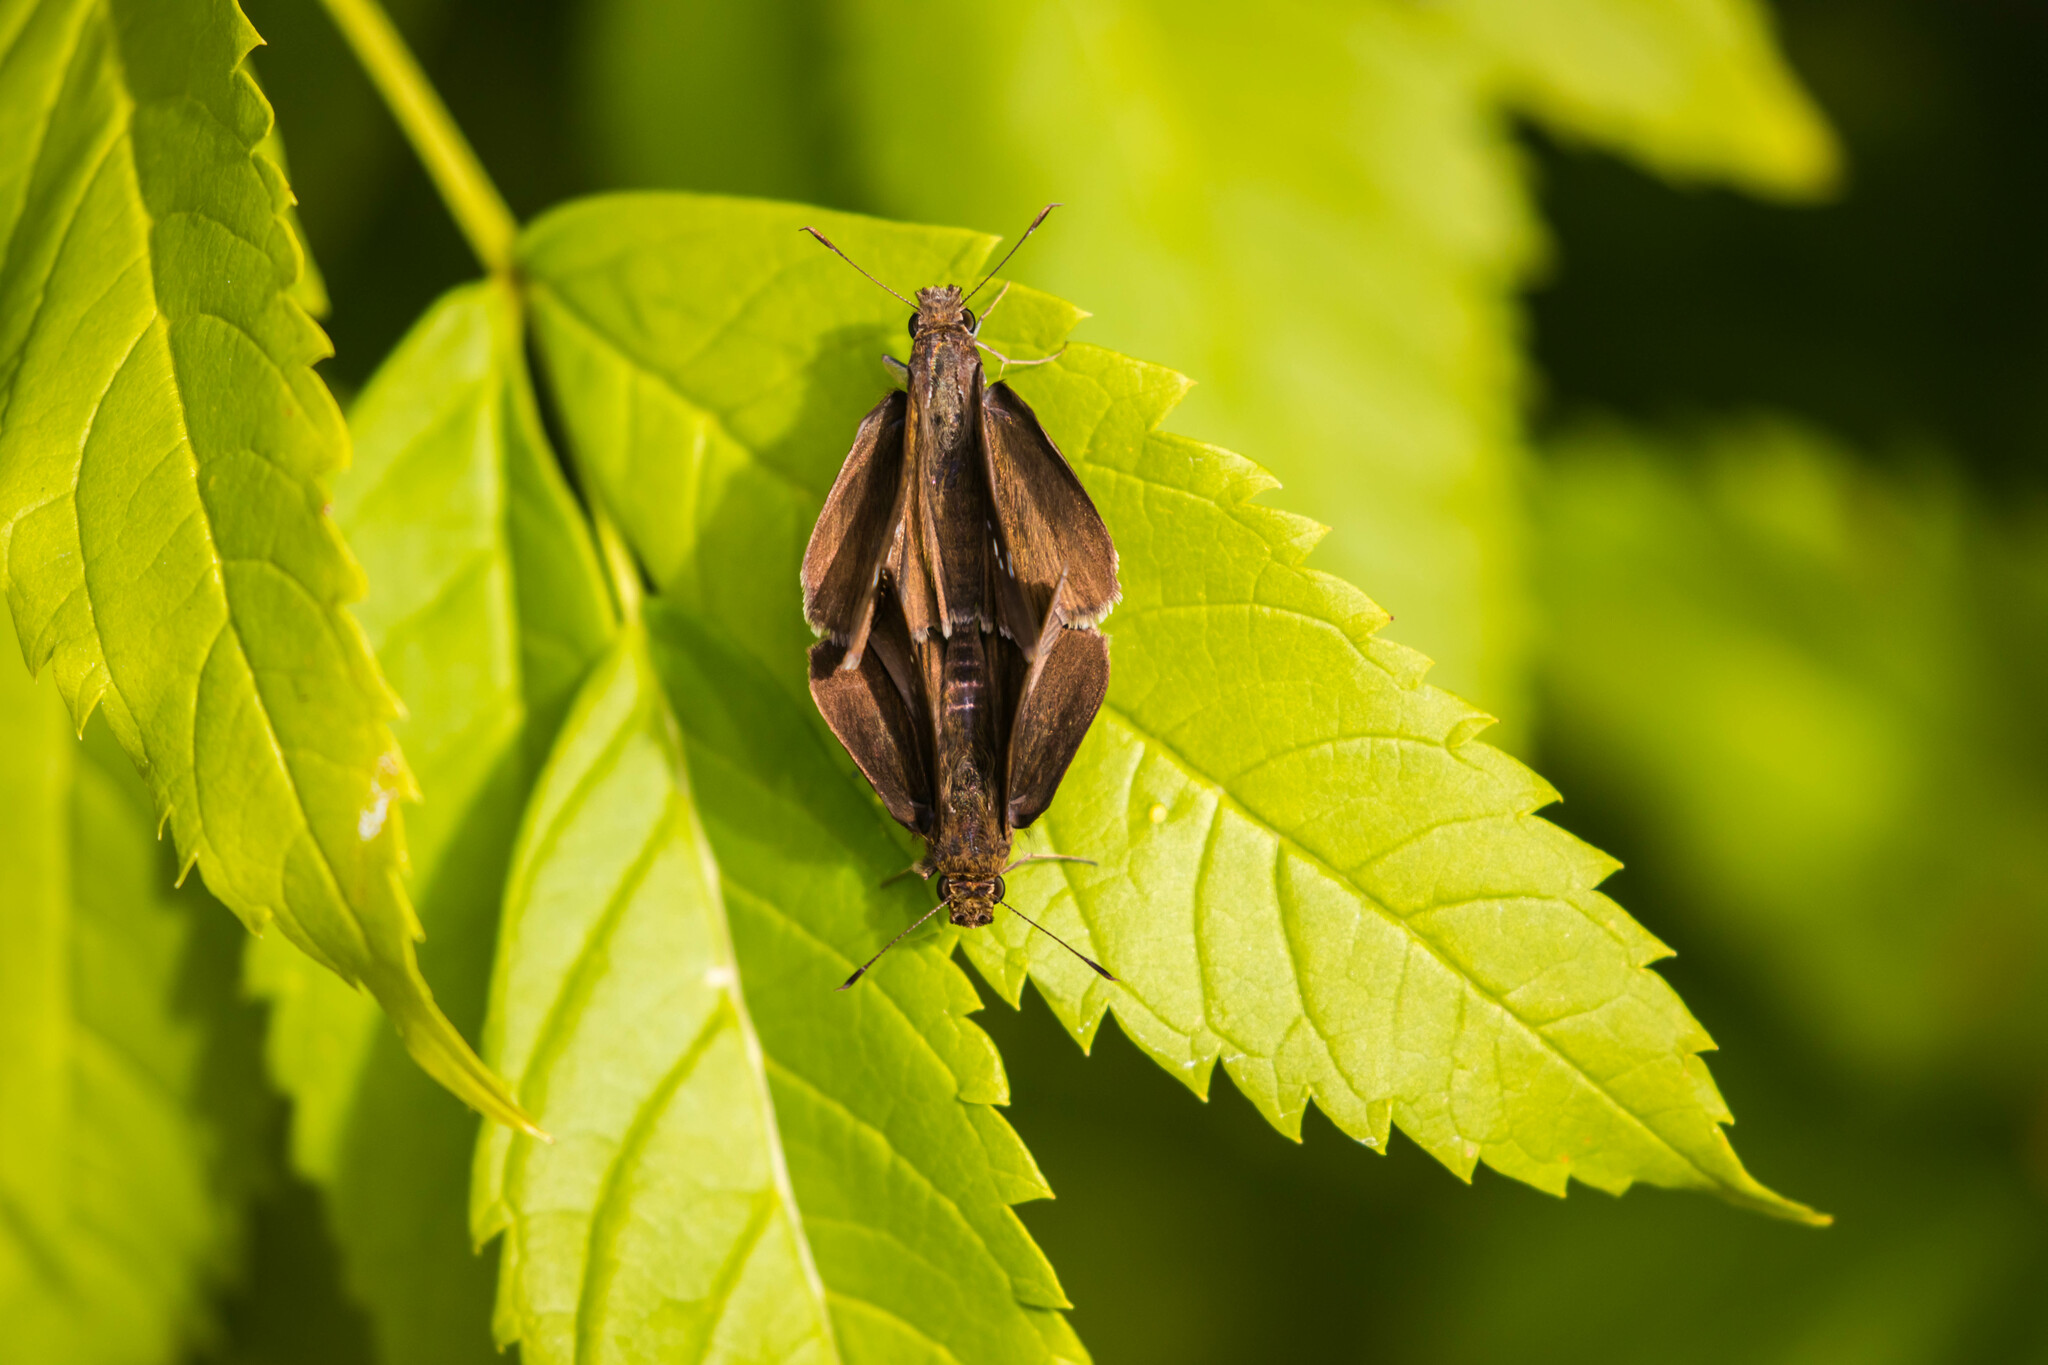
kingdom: Animalia
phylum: Arthropoda
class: Insecta
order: Lepidoptera
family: Hesperiidae
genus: Lerema
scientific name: Lerema accius
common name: Clouded skipper
